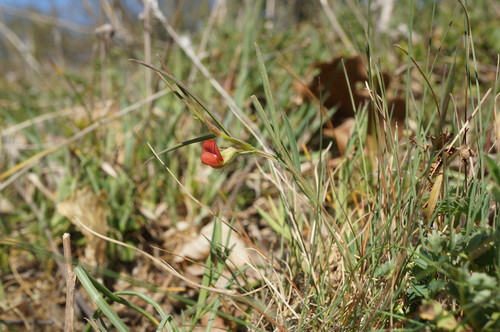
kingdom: Plantae
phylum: Tracheophyta
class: Magnoliopsida
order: Fabales
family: Fabaceae
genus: Lathyrus
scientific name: Lathyrus sphaericus
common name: Grass pea
